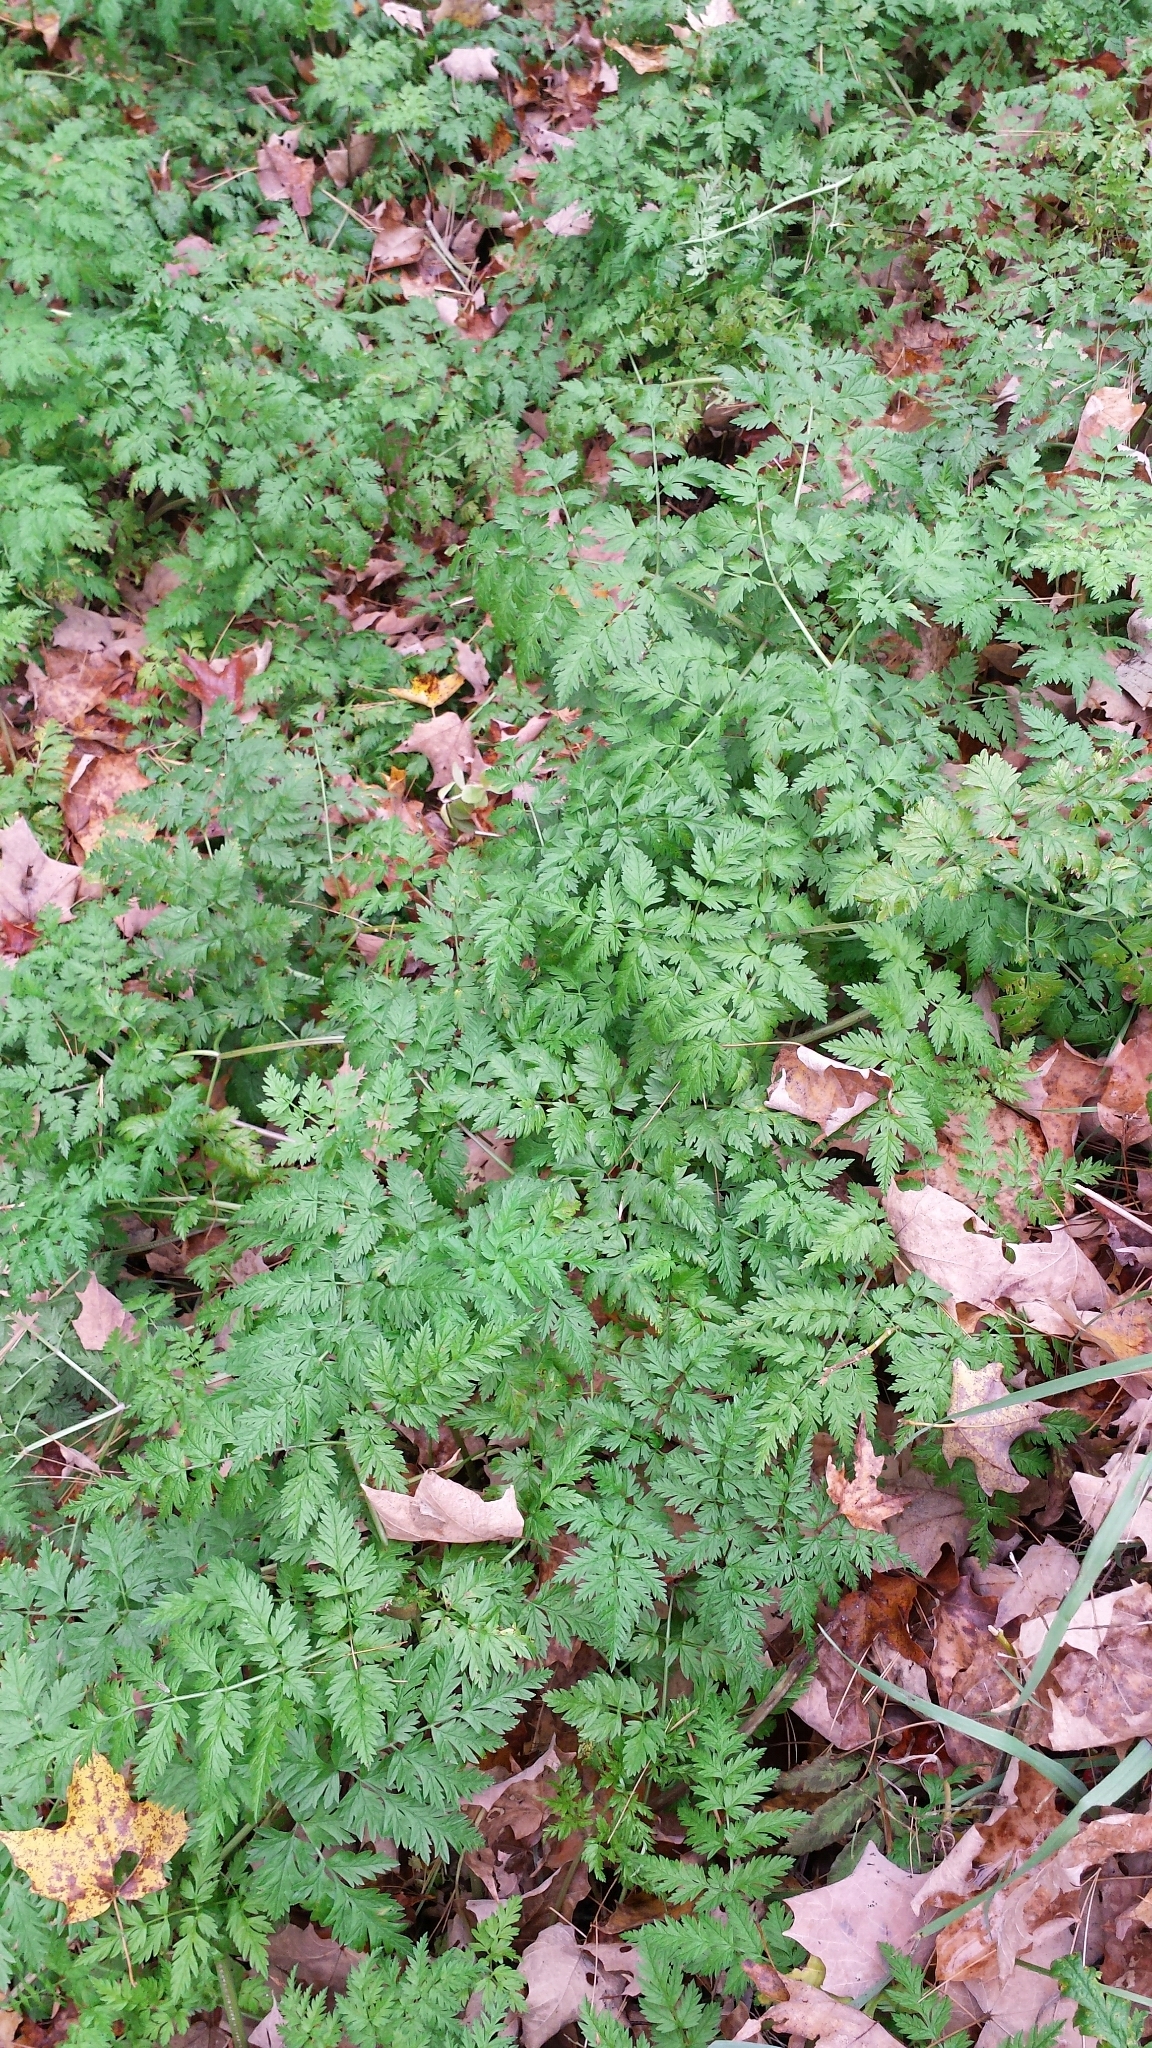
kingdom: Plantae
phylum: Tracheophyta
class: Magnoliopsida
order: Apiales
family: Apiaceae
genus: Anthriscus
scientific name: Anthriscus sylvestris
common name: Cow parsley
